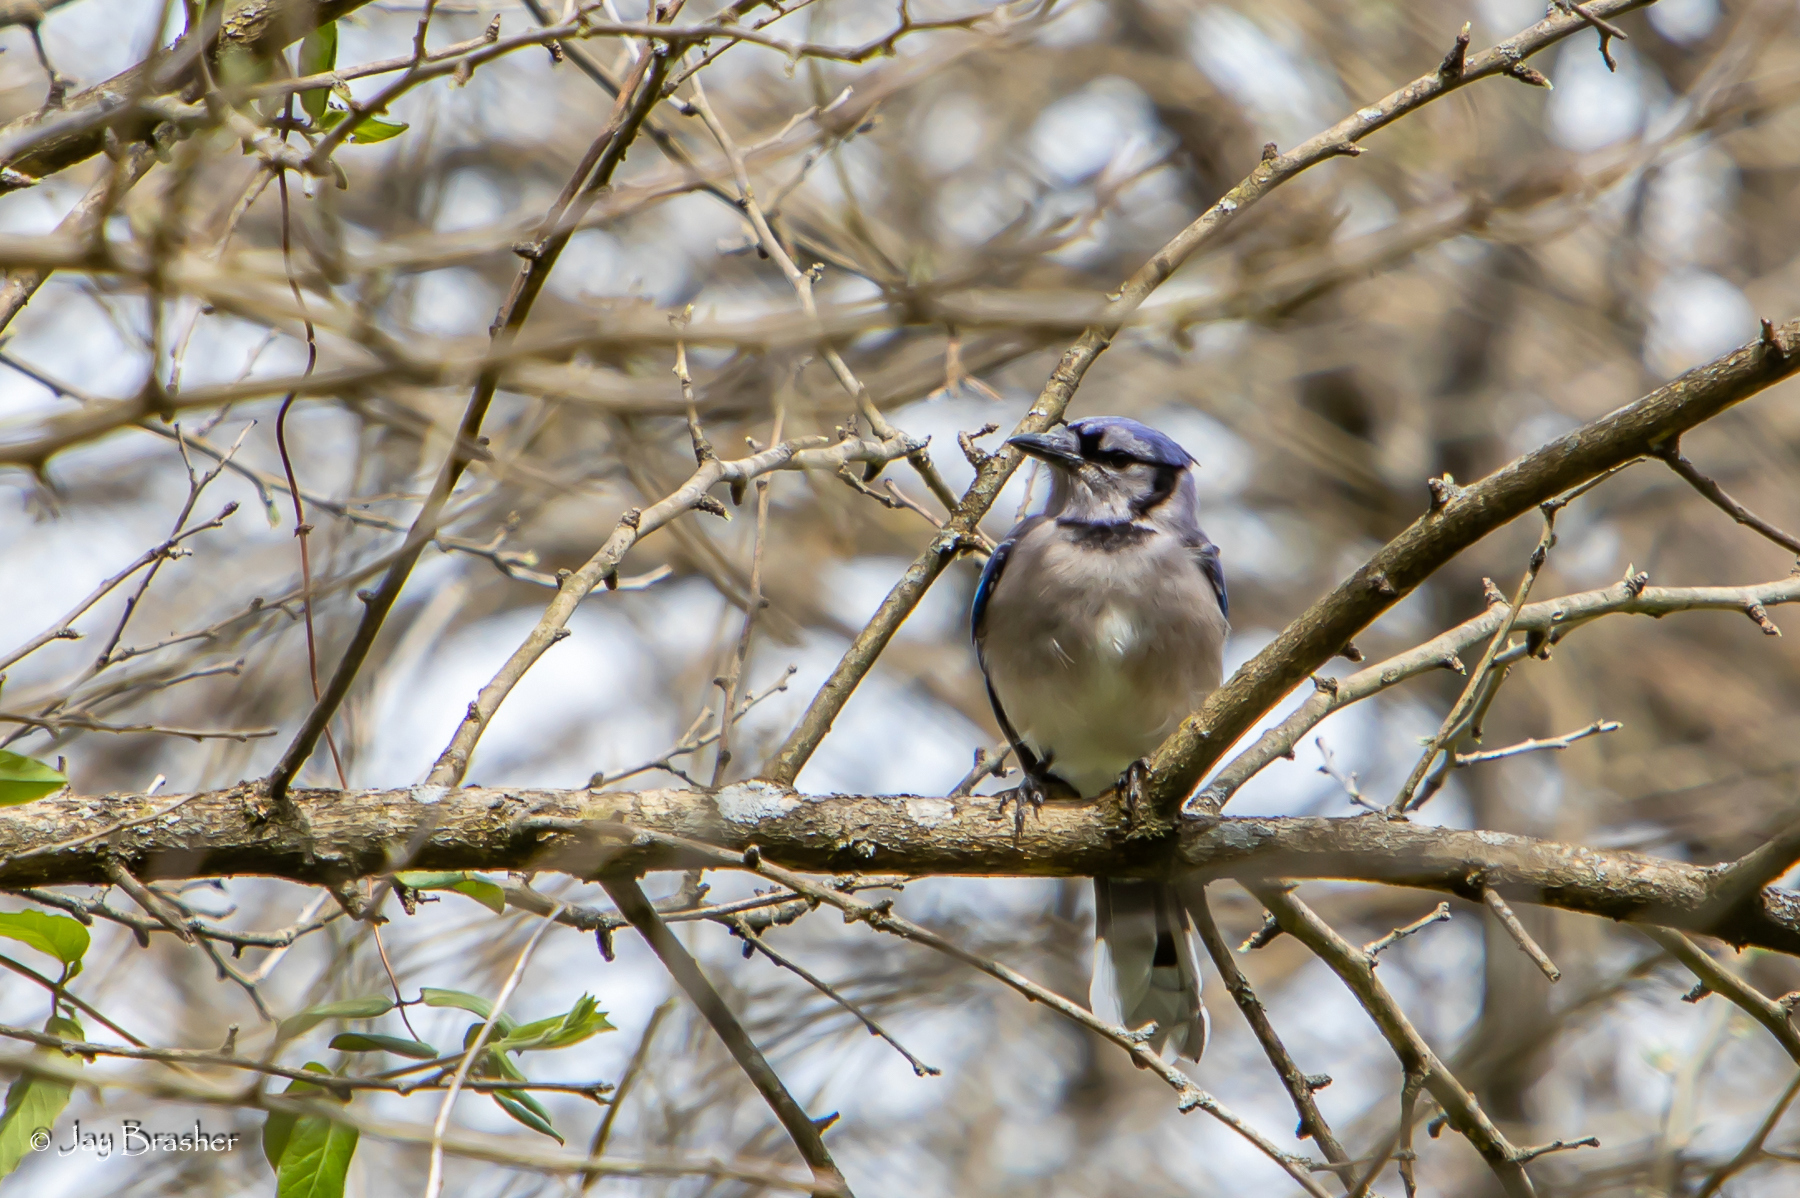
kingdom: Animalia
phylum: Chordata
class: Aves
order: Passeriformes
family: Corvidae
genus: Cyanocitta
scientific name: Cyanocitta cristata
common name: Blue jay
